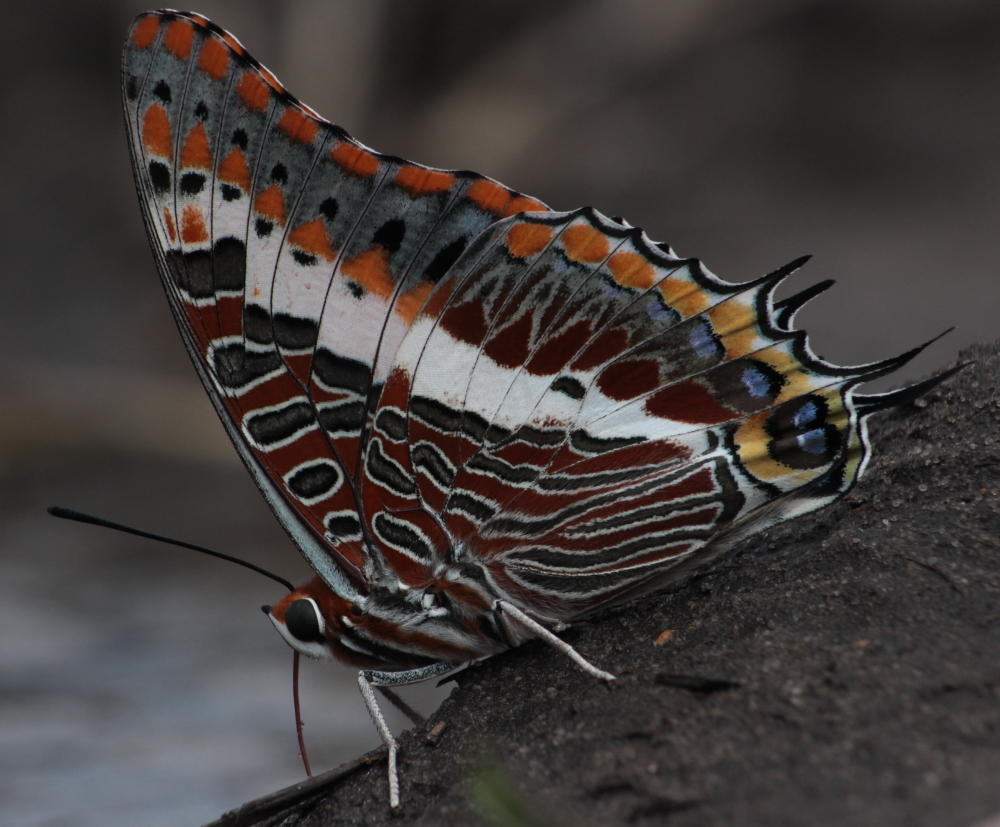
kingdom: Animalia
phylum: Arthropoda
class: Insecta
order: Lepidoptera
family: Nymphalidae
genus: Charaxes
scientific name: Charaxes jasius
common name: Two tailed pasha
